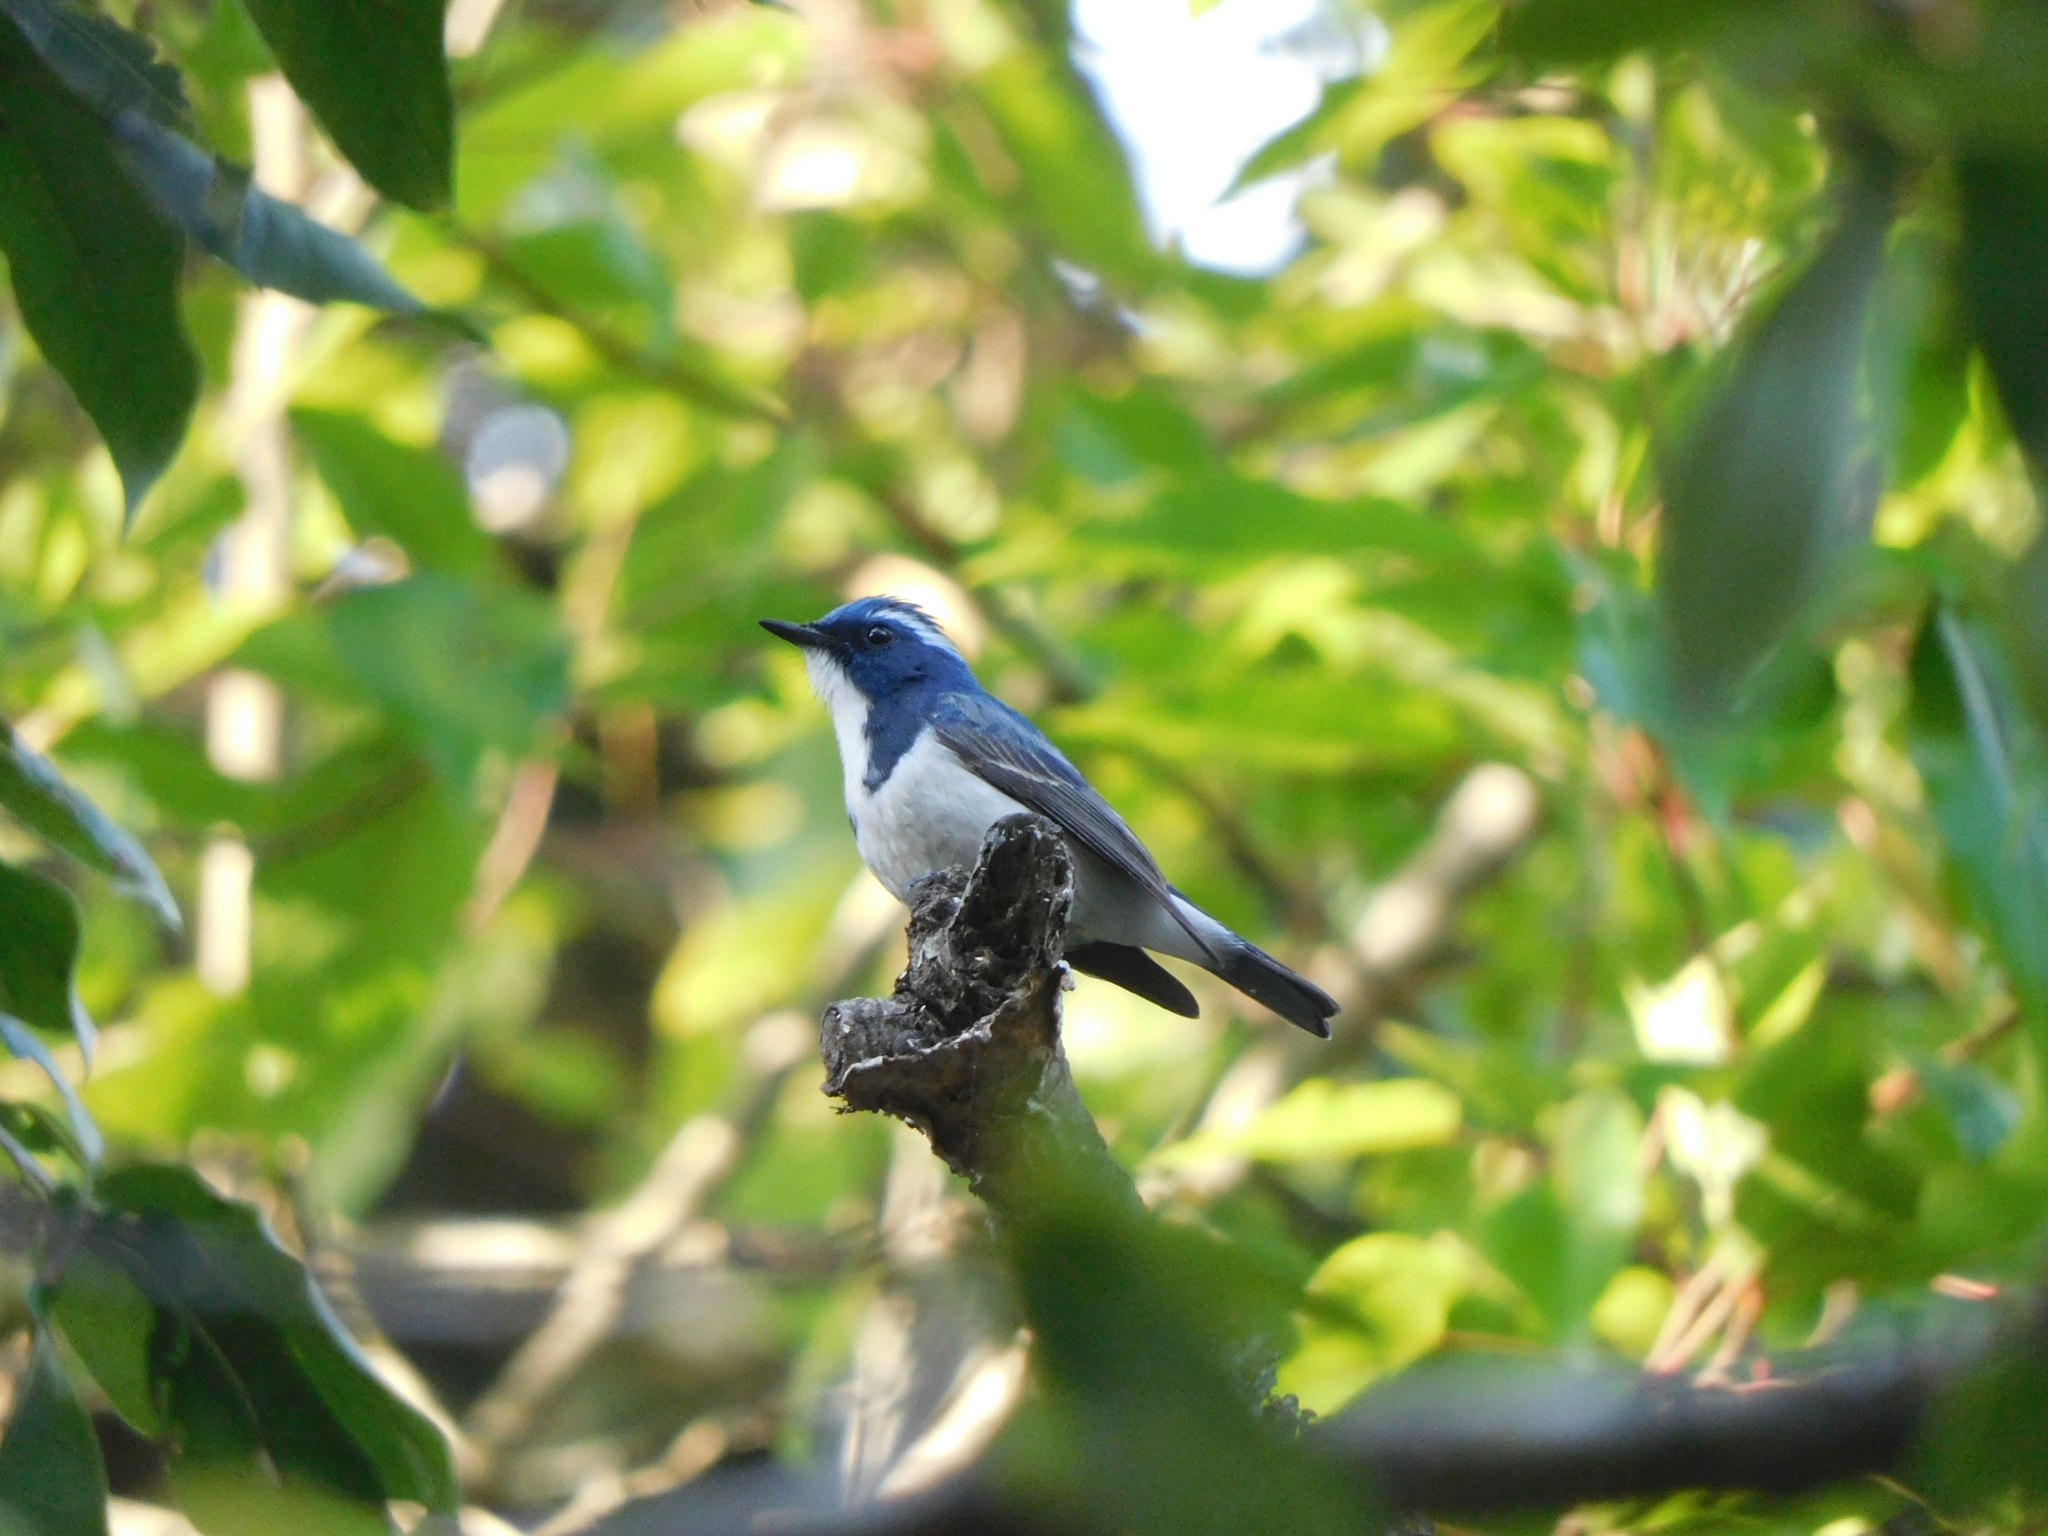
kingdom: Animalia
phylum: Chordata
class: Aves
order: Passeriformes
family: Muscicapidae
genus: Ficedula
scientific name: Ficedula superciliaris
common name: Ultramarine flycatcher
